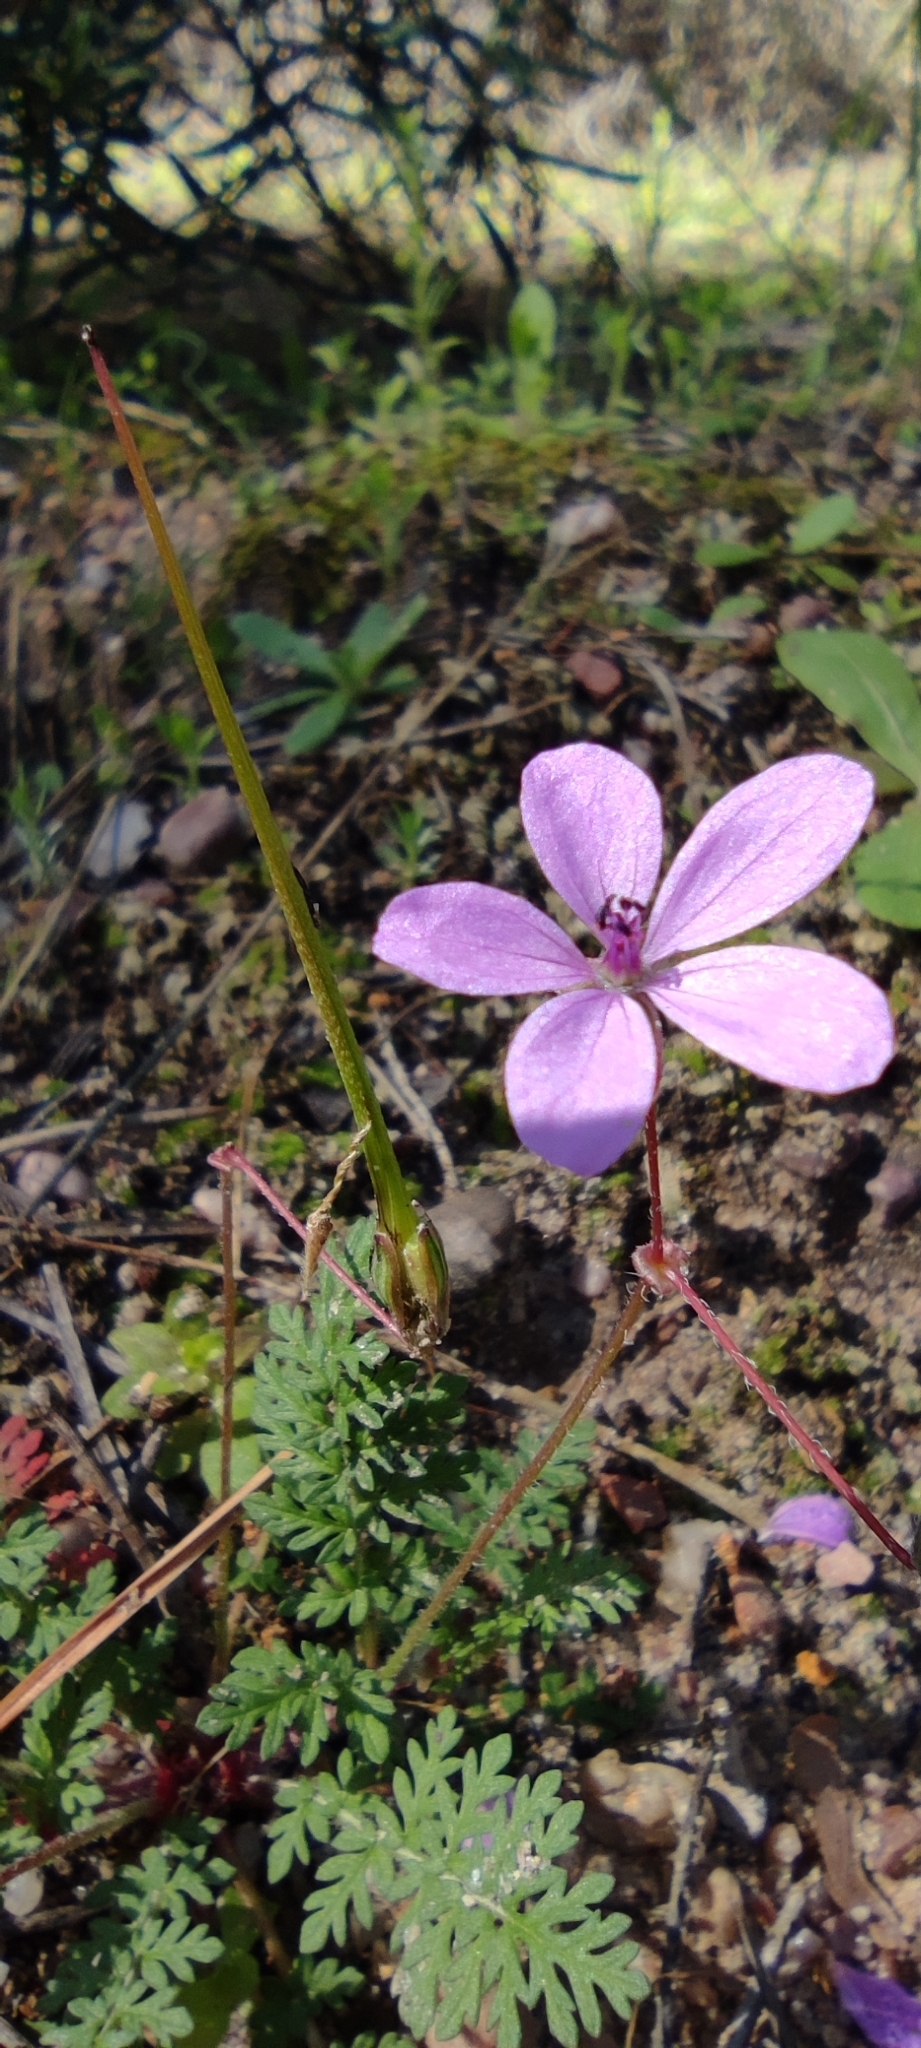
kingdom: Plantae
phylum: Tracheophyta
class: Magnoliopsida
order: Geraniales
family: Geraniaceae
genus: Erodium
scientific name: Erodium cicutarium
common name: Common stork's-bill
